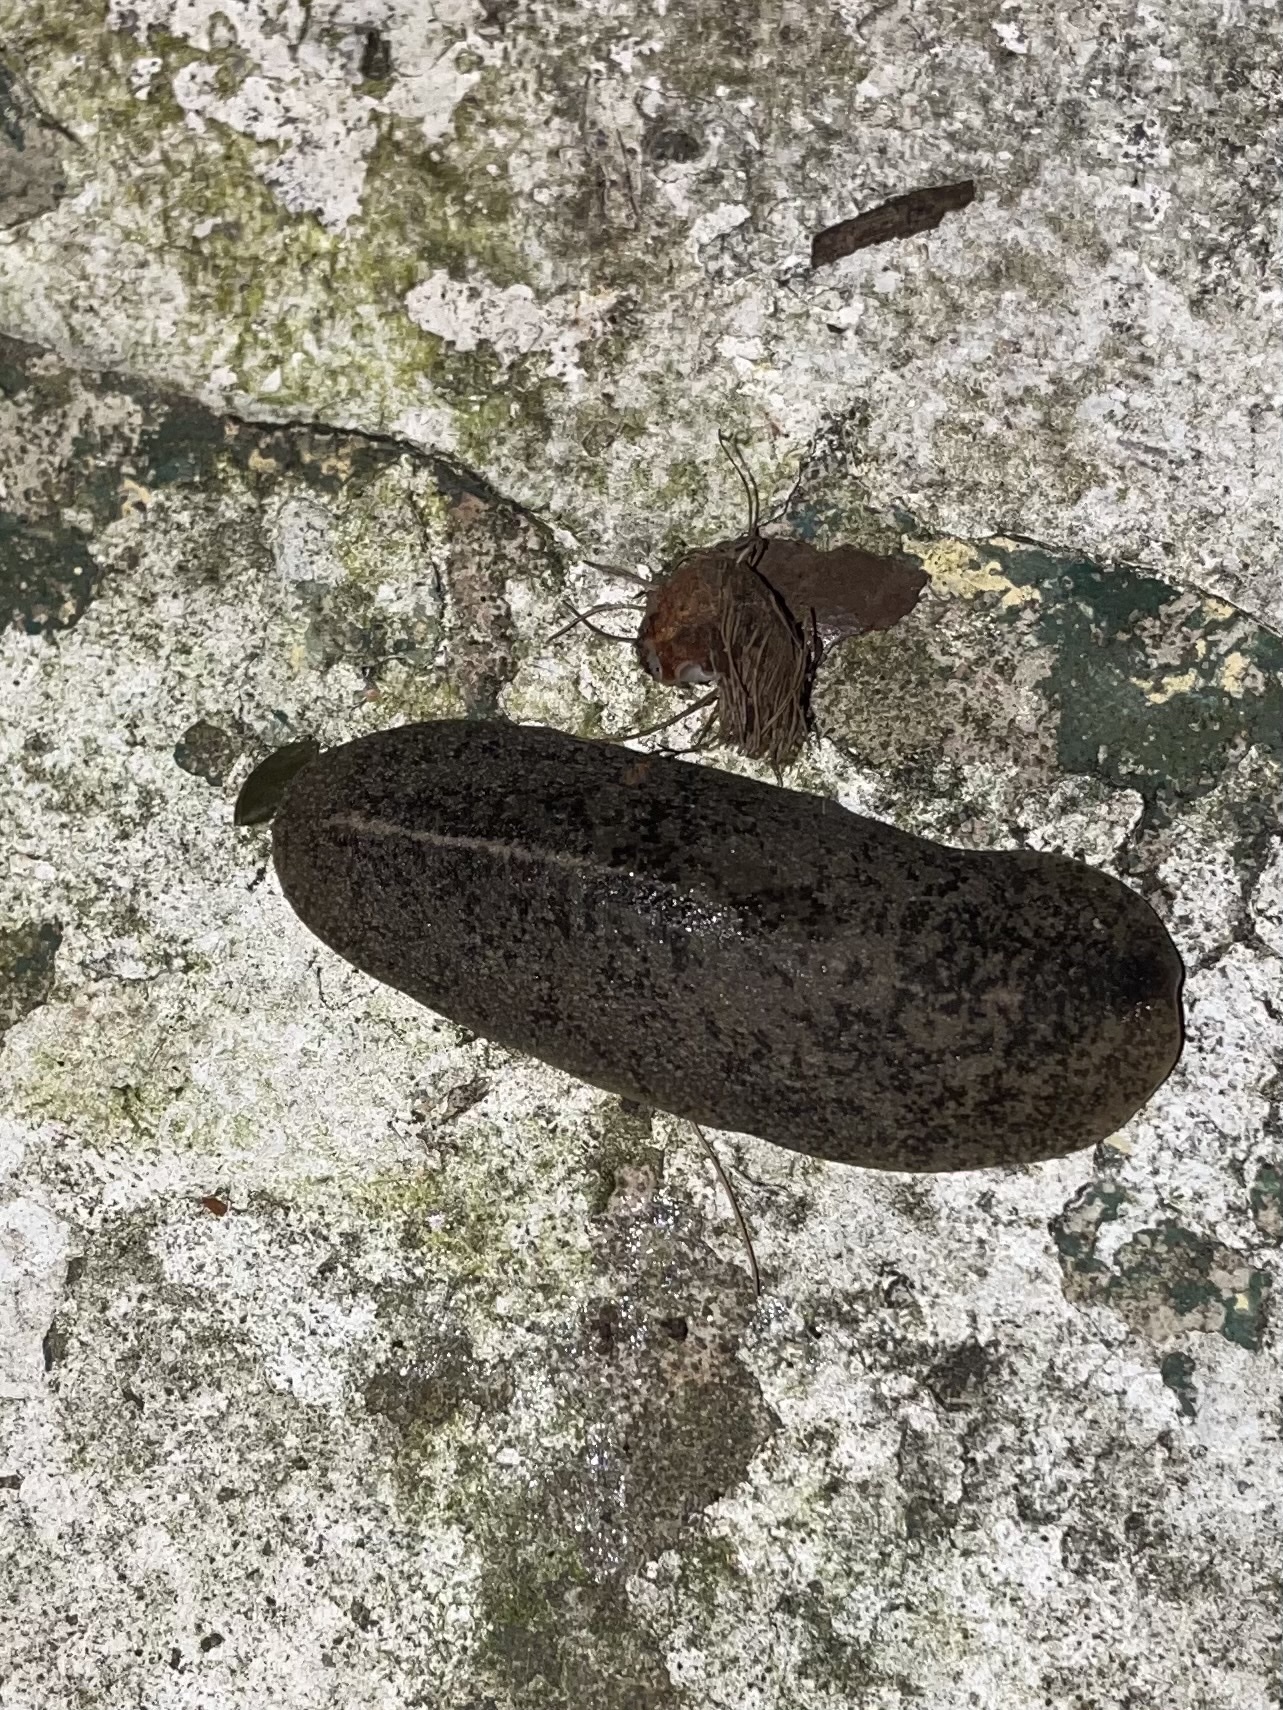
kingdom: Animalia
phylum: Mollusca
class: Gastropoda
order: Systellommatophora
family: Veronicellidae
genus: Leidyula
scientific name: Leidyula floridana
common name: Florida leatherleaf
